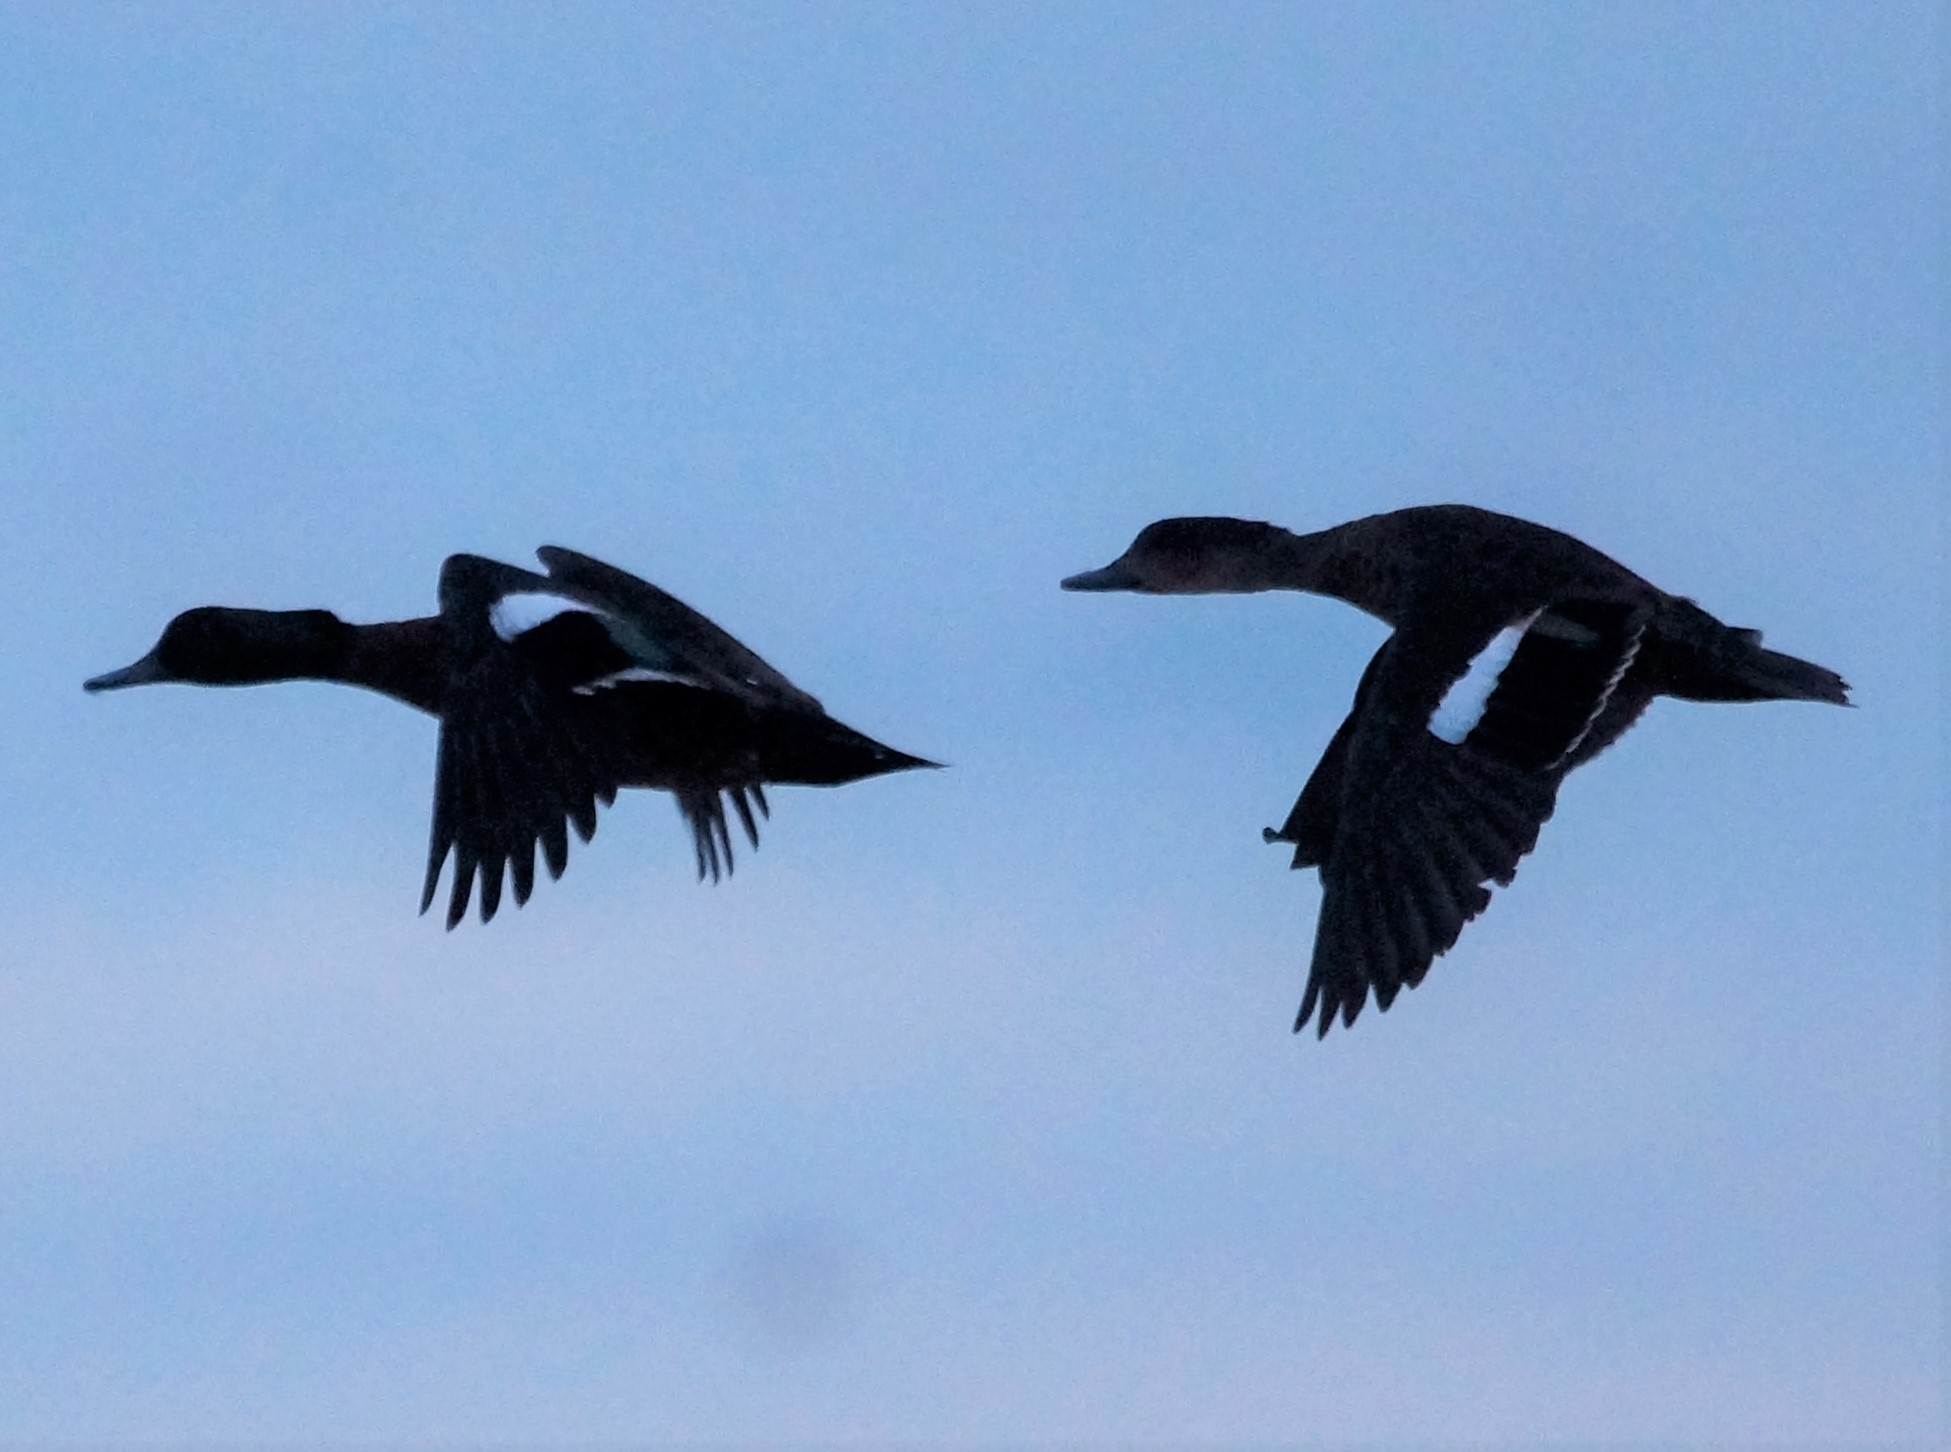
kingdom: Animalia
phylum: Chordata
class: Aves
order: Anseriformes
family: Anatidae
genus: Anas
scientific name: Anas castanea
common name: Chestnut teal
